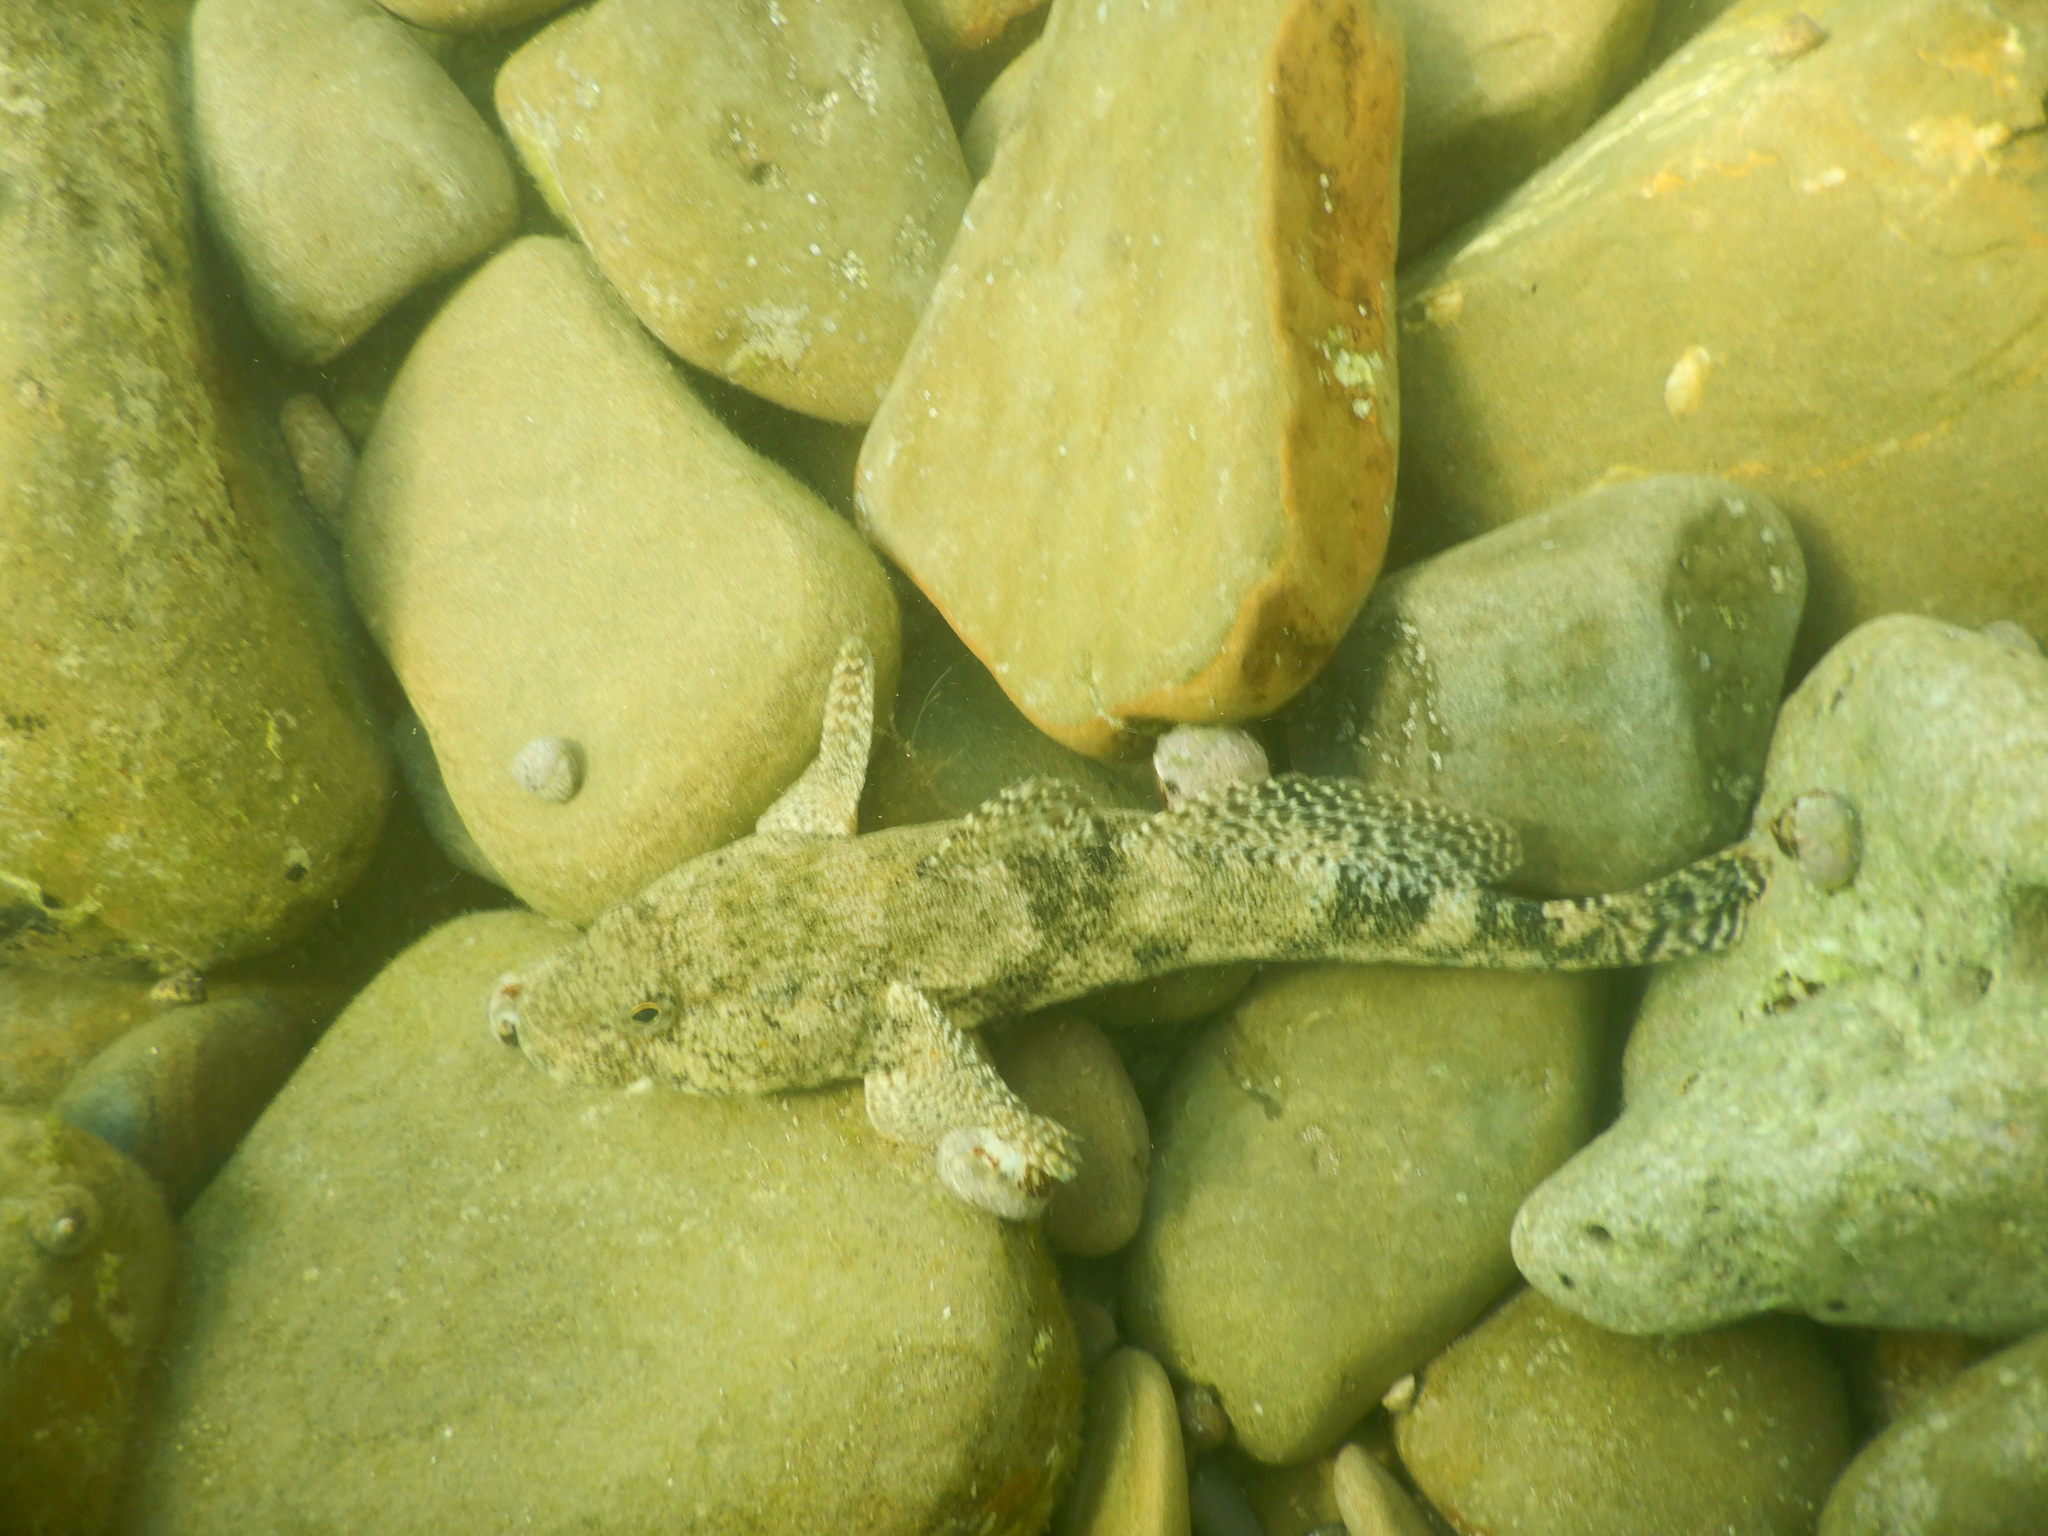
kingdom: Animalia
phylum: Chordata
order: Perciformes
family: Gobiidae
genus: Gobius
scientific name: Gobius cobitis
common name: Giant goby
